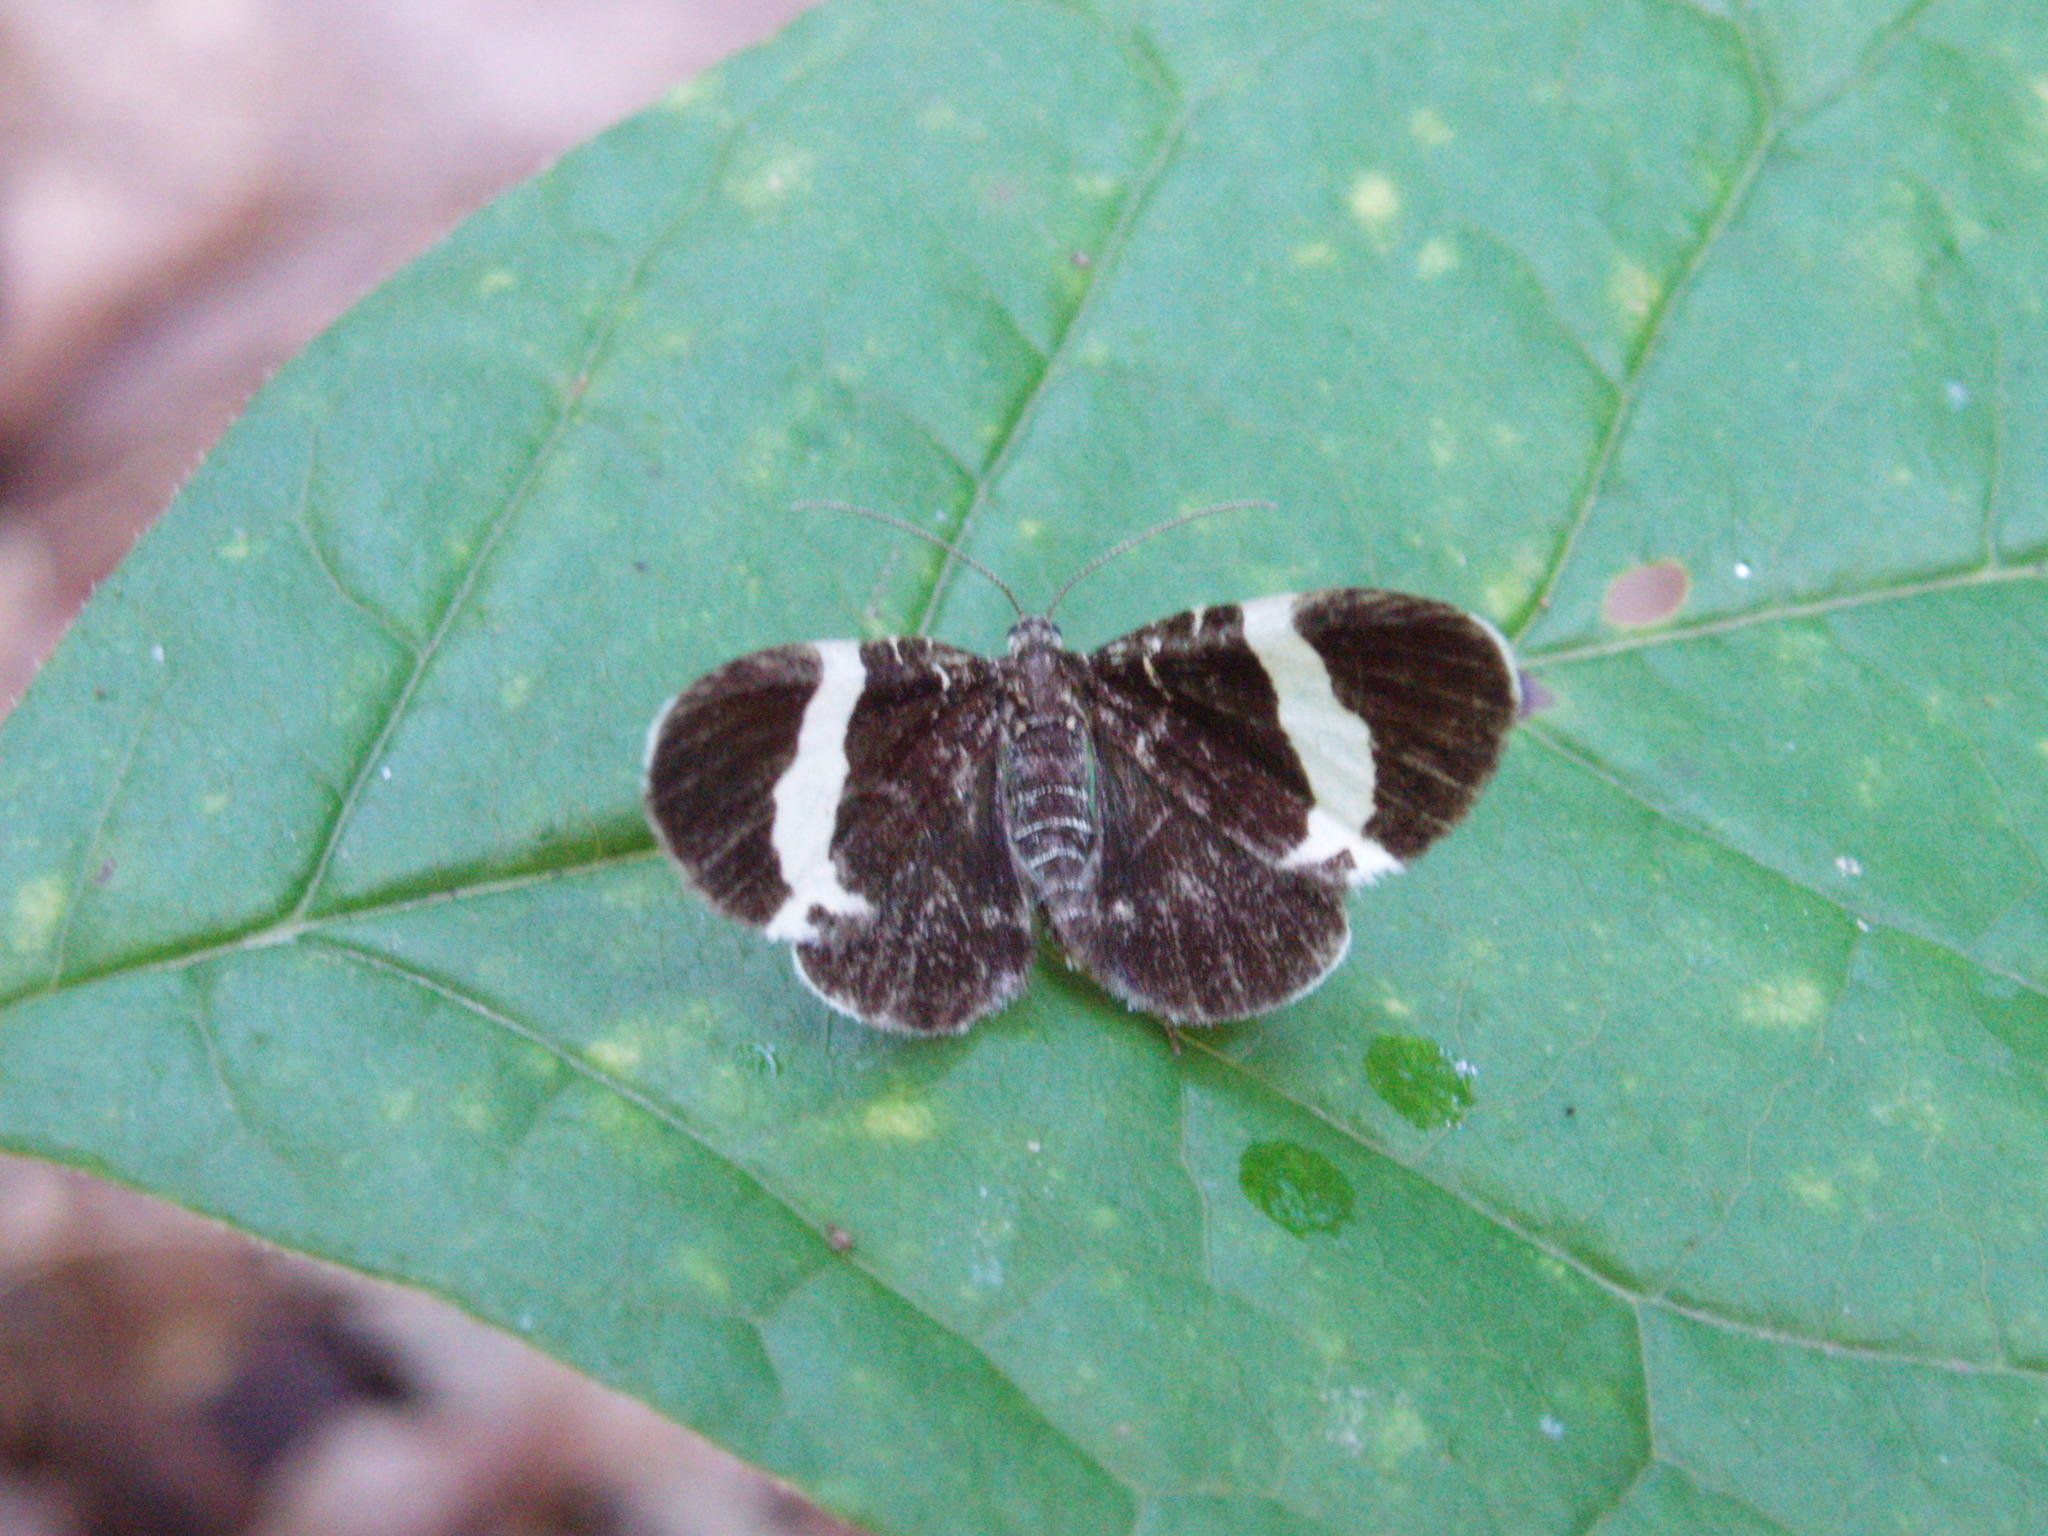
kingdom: Animalia
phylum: Arthropoda
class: Insecta
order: Lepidoptera
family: Geometridae
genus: Trichodezia
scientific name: Trichodezia albovittata
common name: White striped black
